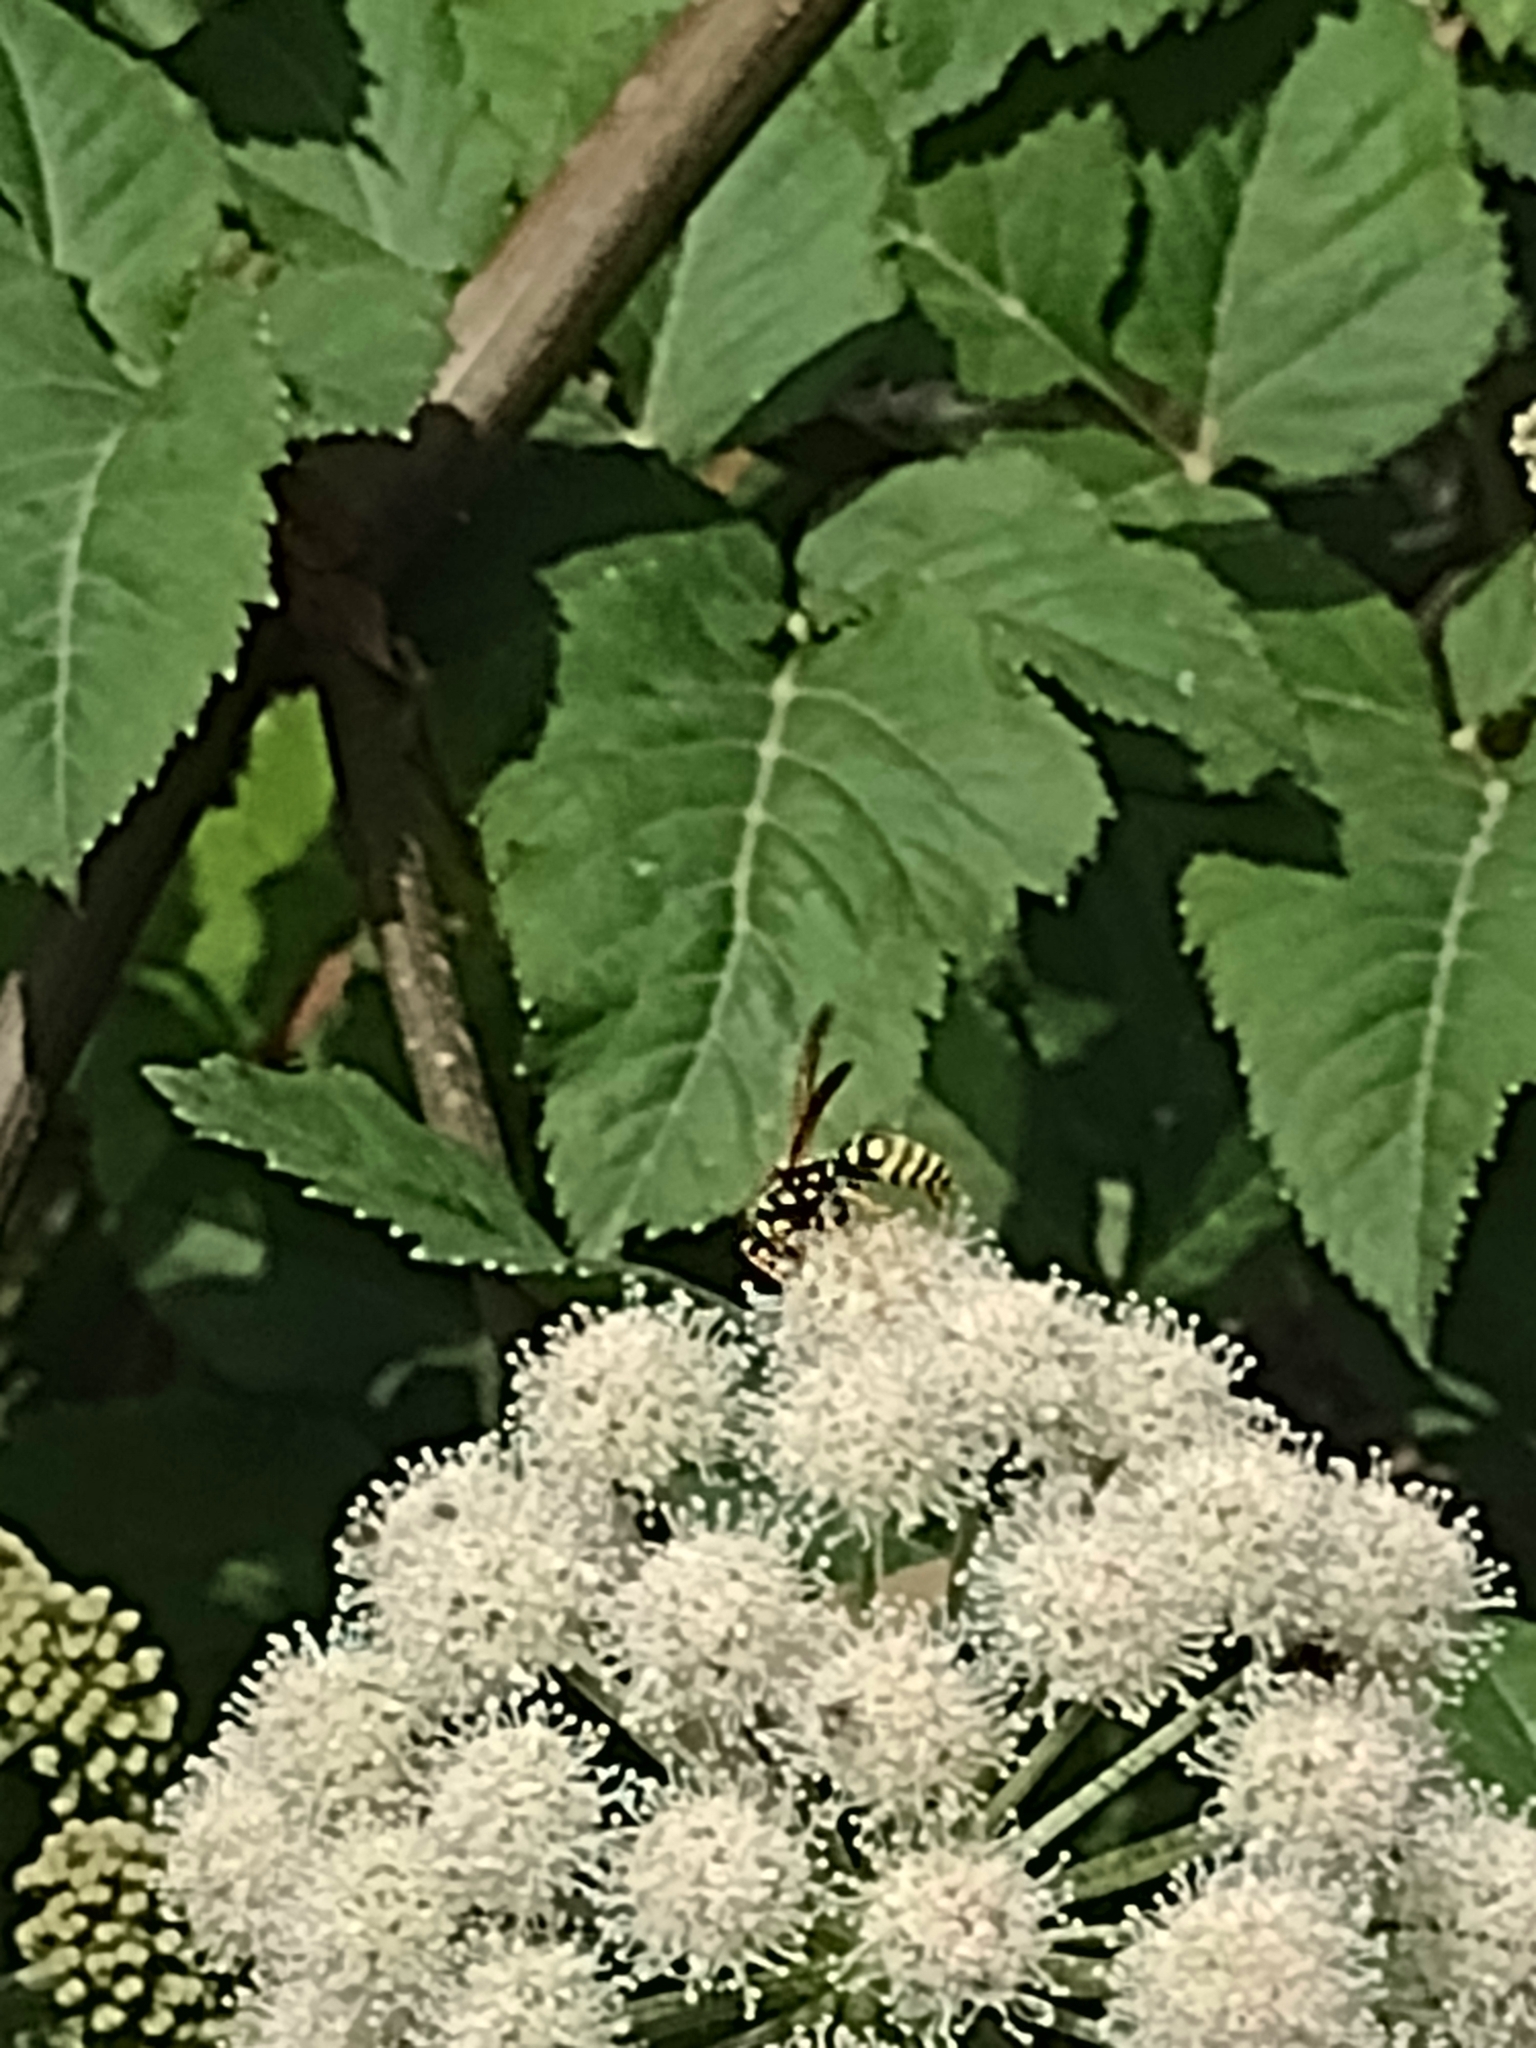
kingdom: Animalia
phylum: Arthropoda
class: Insecta
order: Hymenoptera
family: Eumenidae
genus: Polistes
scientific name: Polistes dominula
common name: Paper wasp
